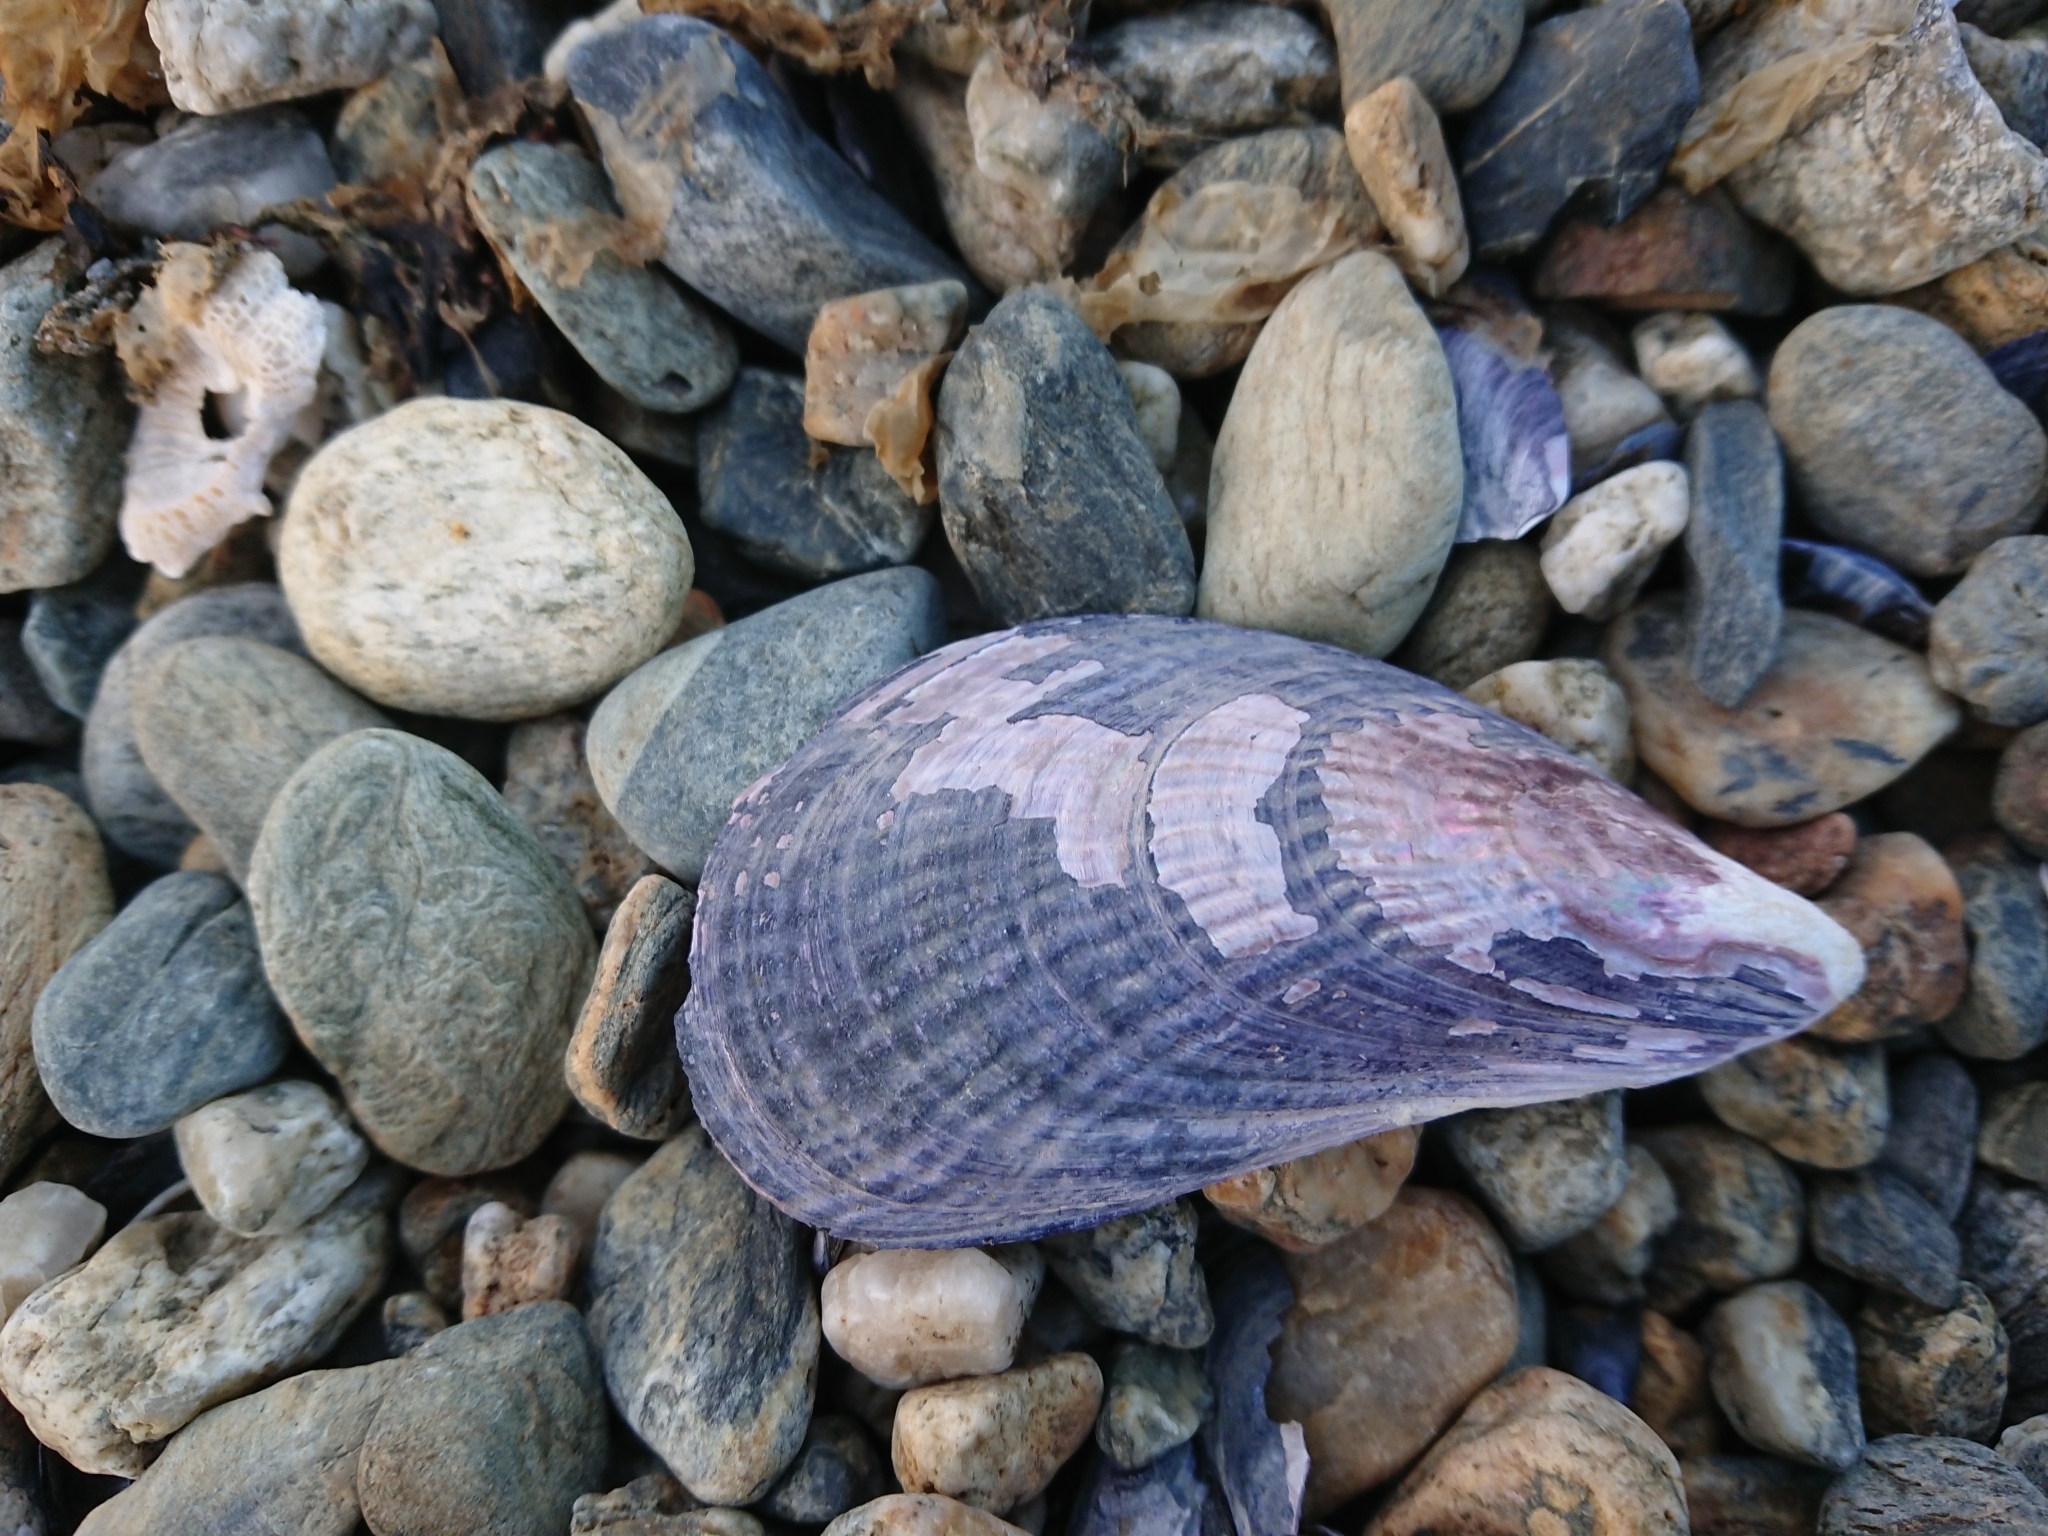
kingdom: Animalia
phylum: Mollusca
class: Bivalvia
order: Mytilida
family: Mytilidae
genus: Aulacomya
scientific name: Aulacomya atra
